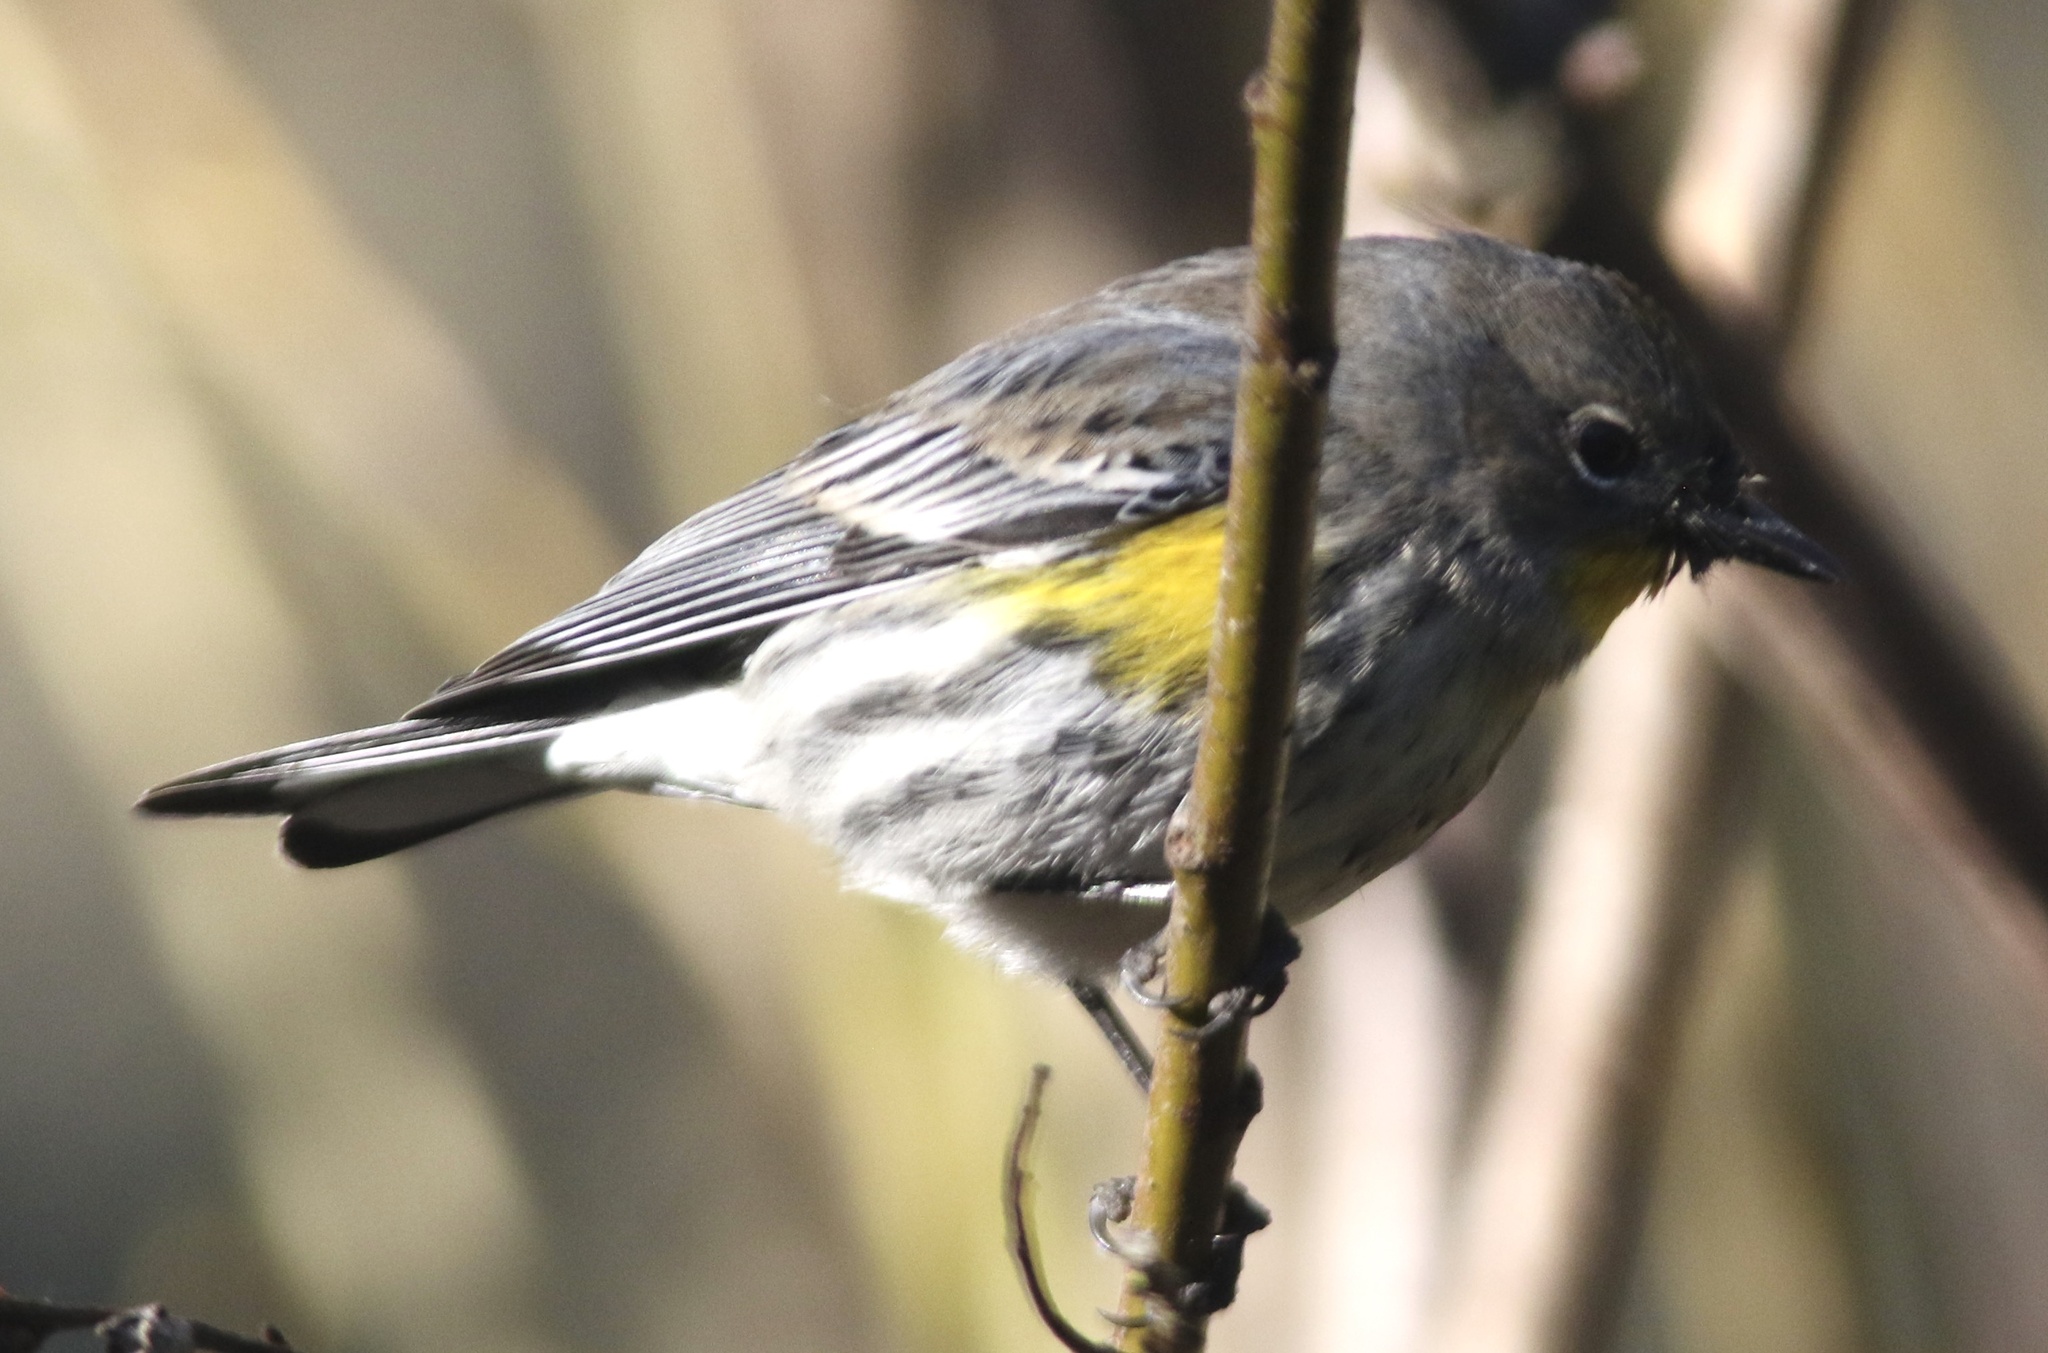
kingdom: Animalia
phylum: Chordata
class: Aves
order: Passeriformes
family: Parulidae
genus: Setophaga
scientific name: Setophaga coronata
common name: Myrtle warbler
